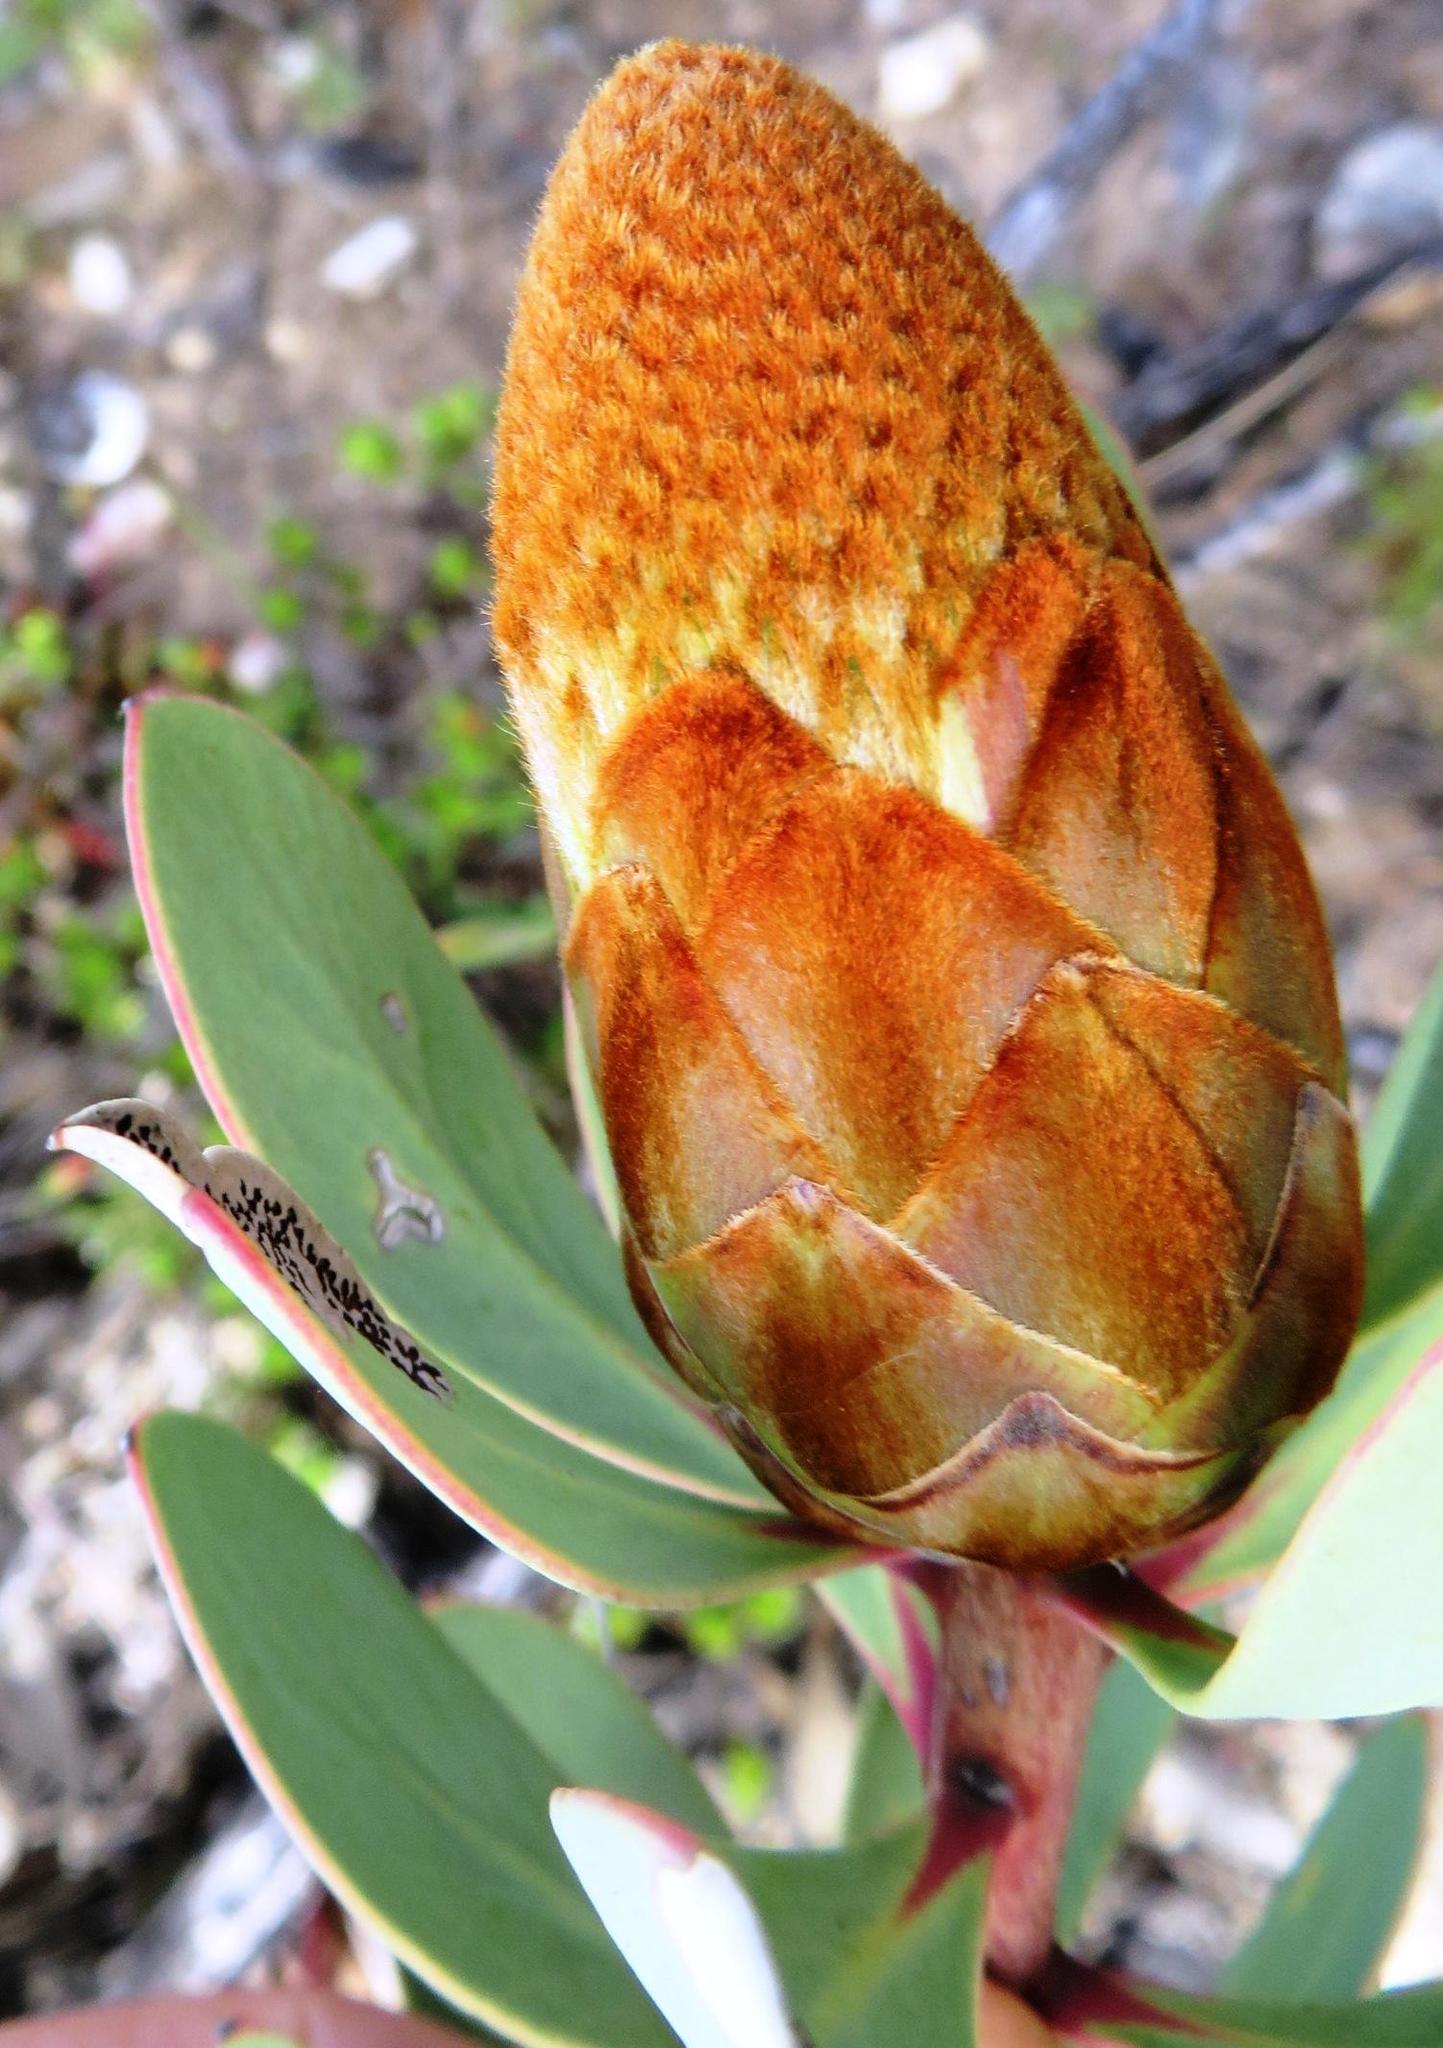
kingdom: Plantae
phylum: Tracheophyta
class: Magnoliopsida
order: Proteales
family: Proteaceae
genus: Protea
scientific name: Protea glabra
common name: Chestnut sugarbush
